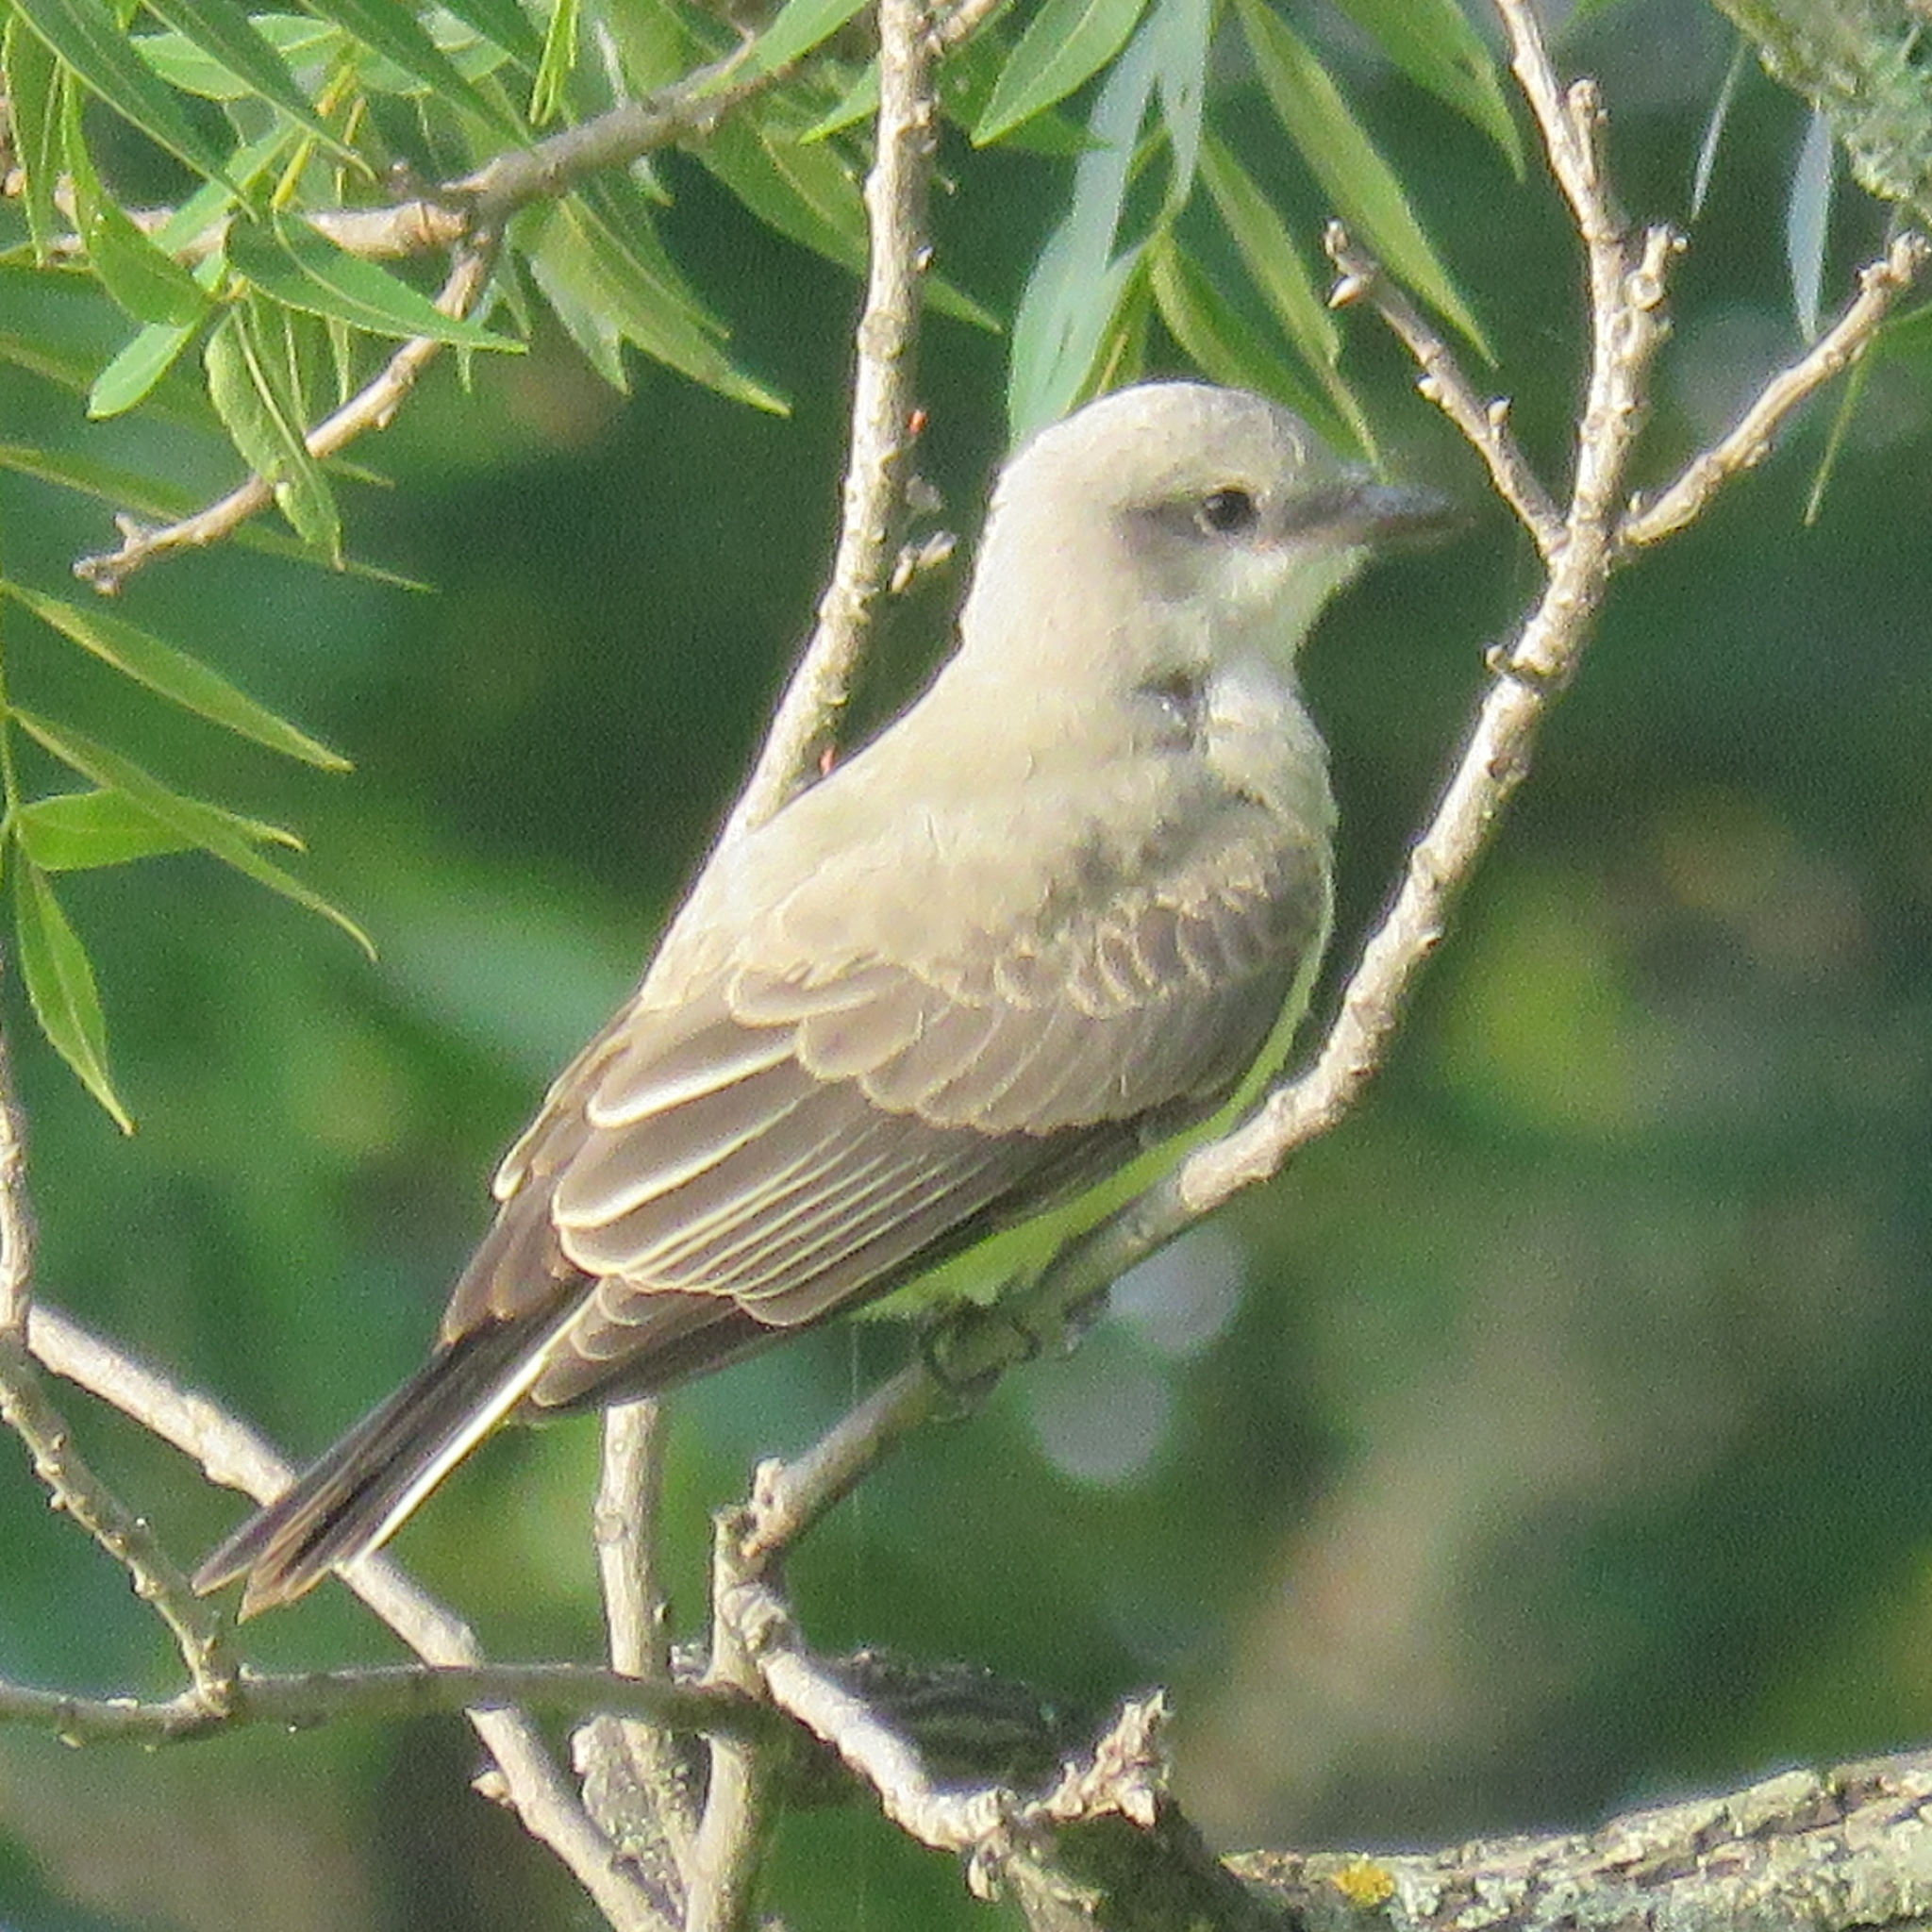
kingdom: Animalia
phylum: Chordata
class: Aves
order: Passeriformes
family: Tyrannidae
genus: Tyrannus
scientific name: Tyrannus verticalis
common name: Western kingbird
